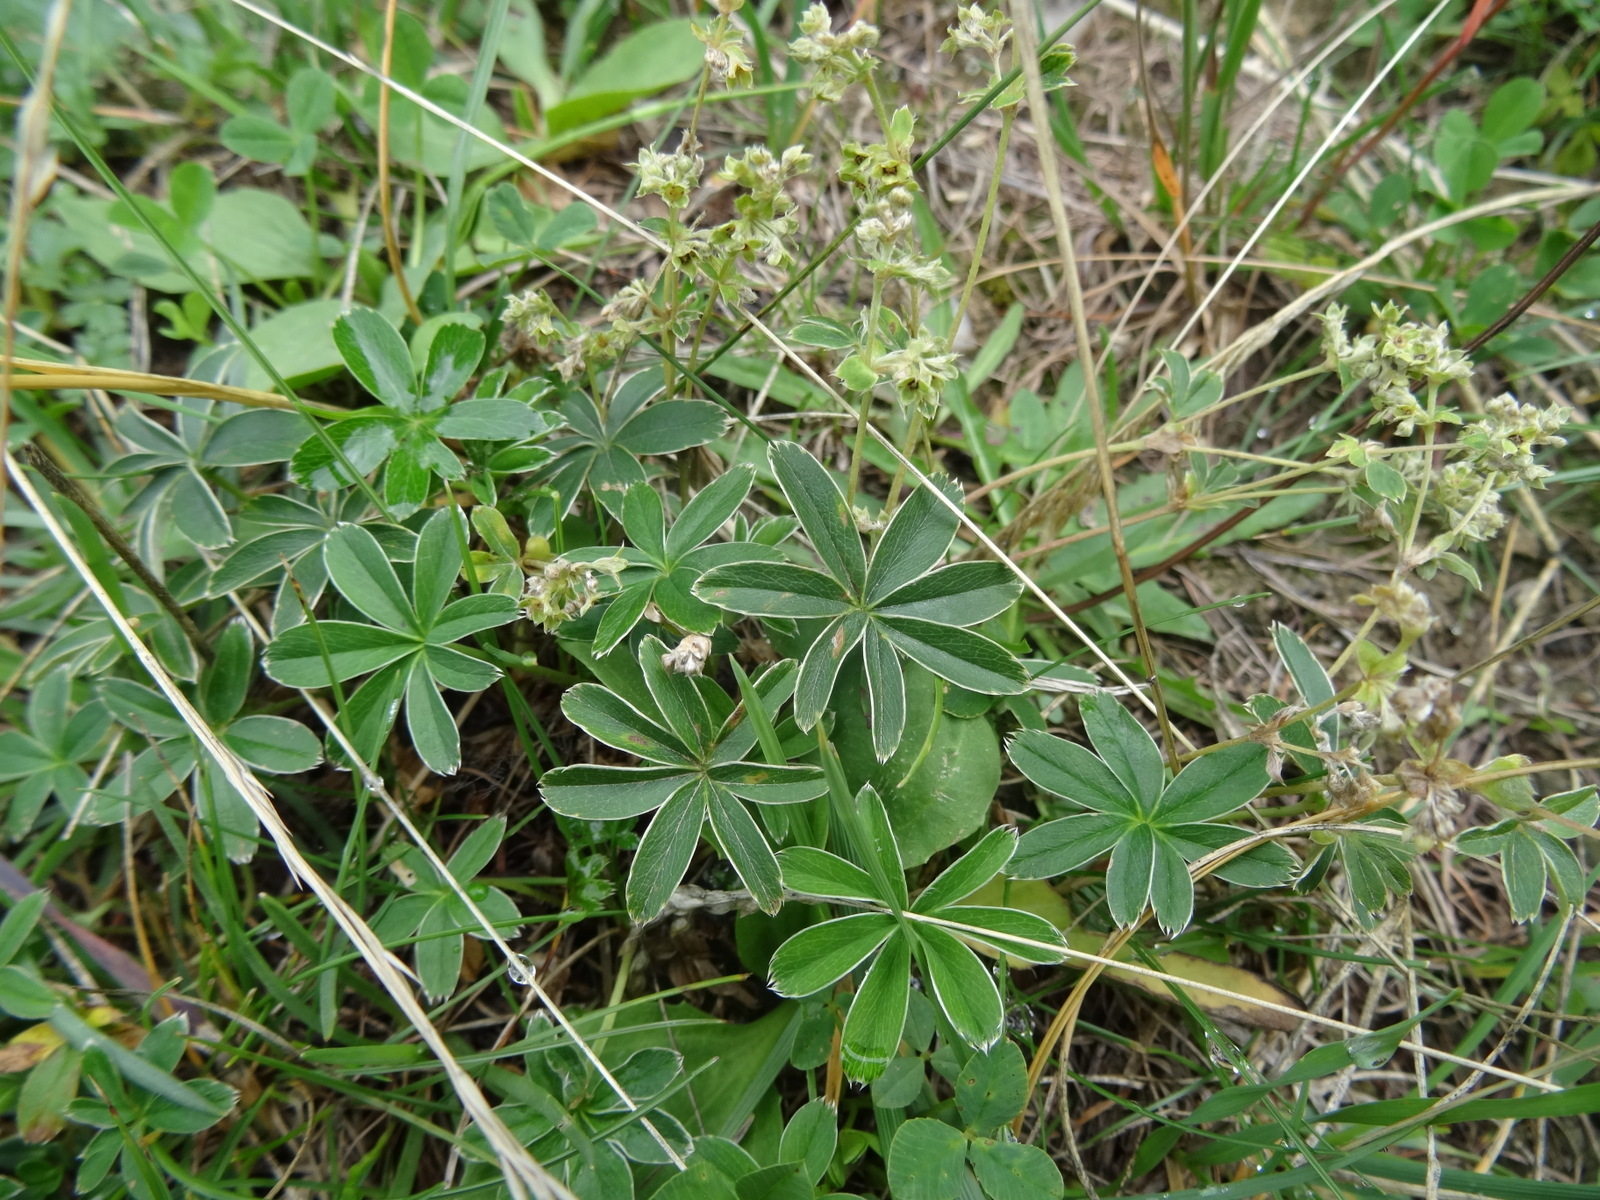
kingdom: Plantae
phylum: Tracheophyta
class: Magnoliopsida
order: Rosales
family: Rosaceae
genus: Alchemilla
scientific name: Alchemilla alpina
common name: Alpine lady's-mantle
